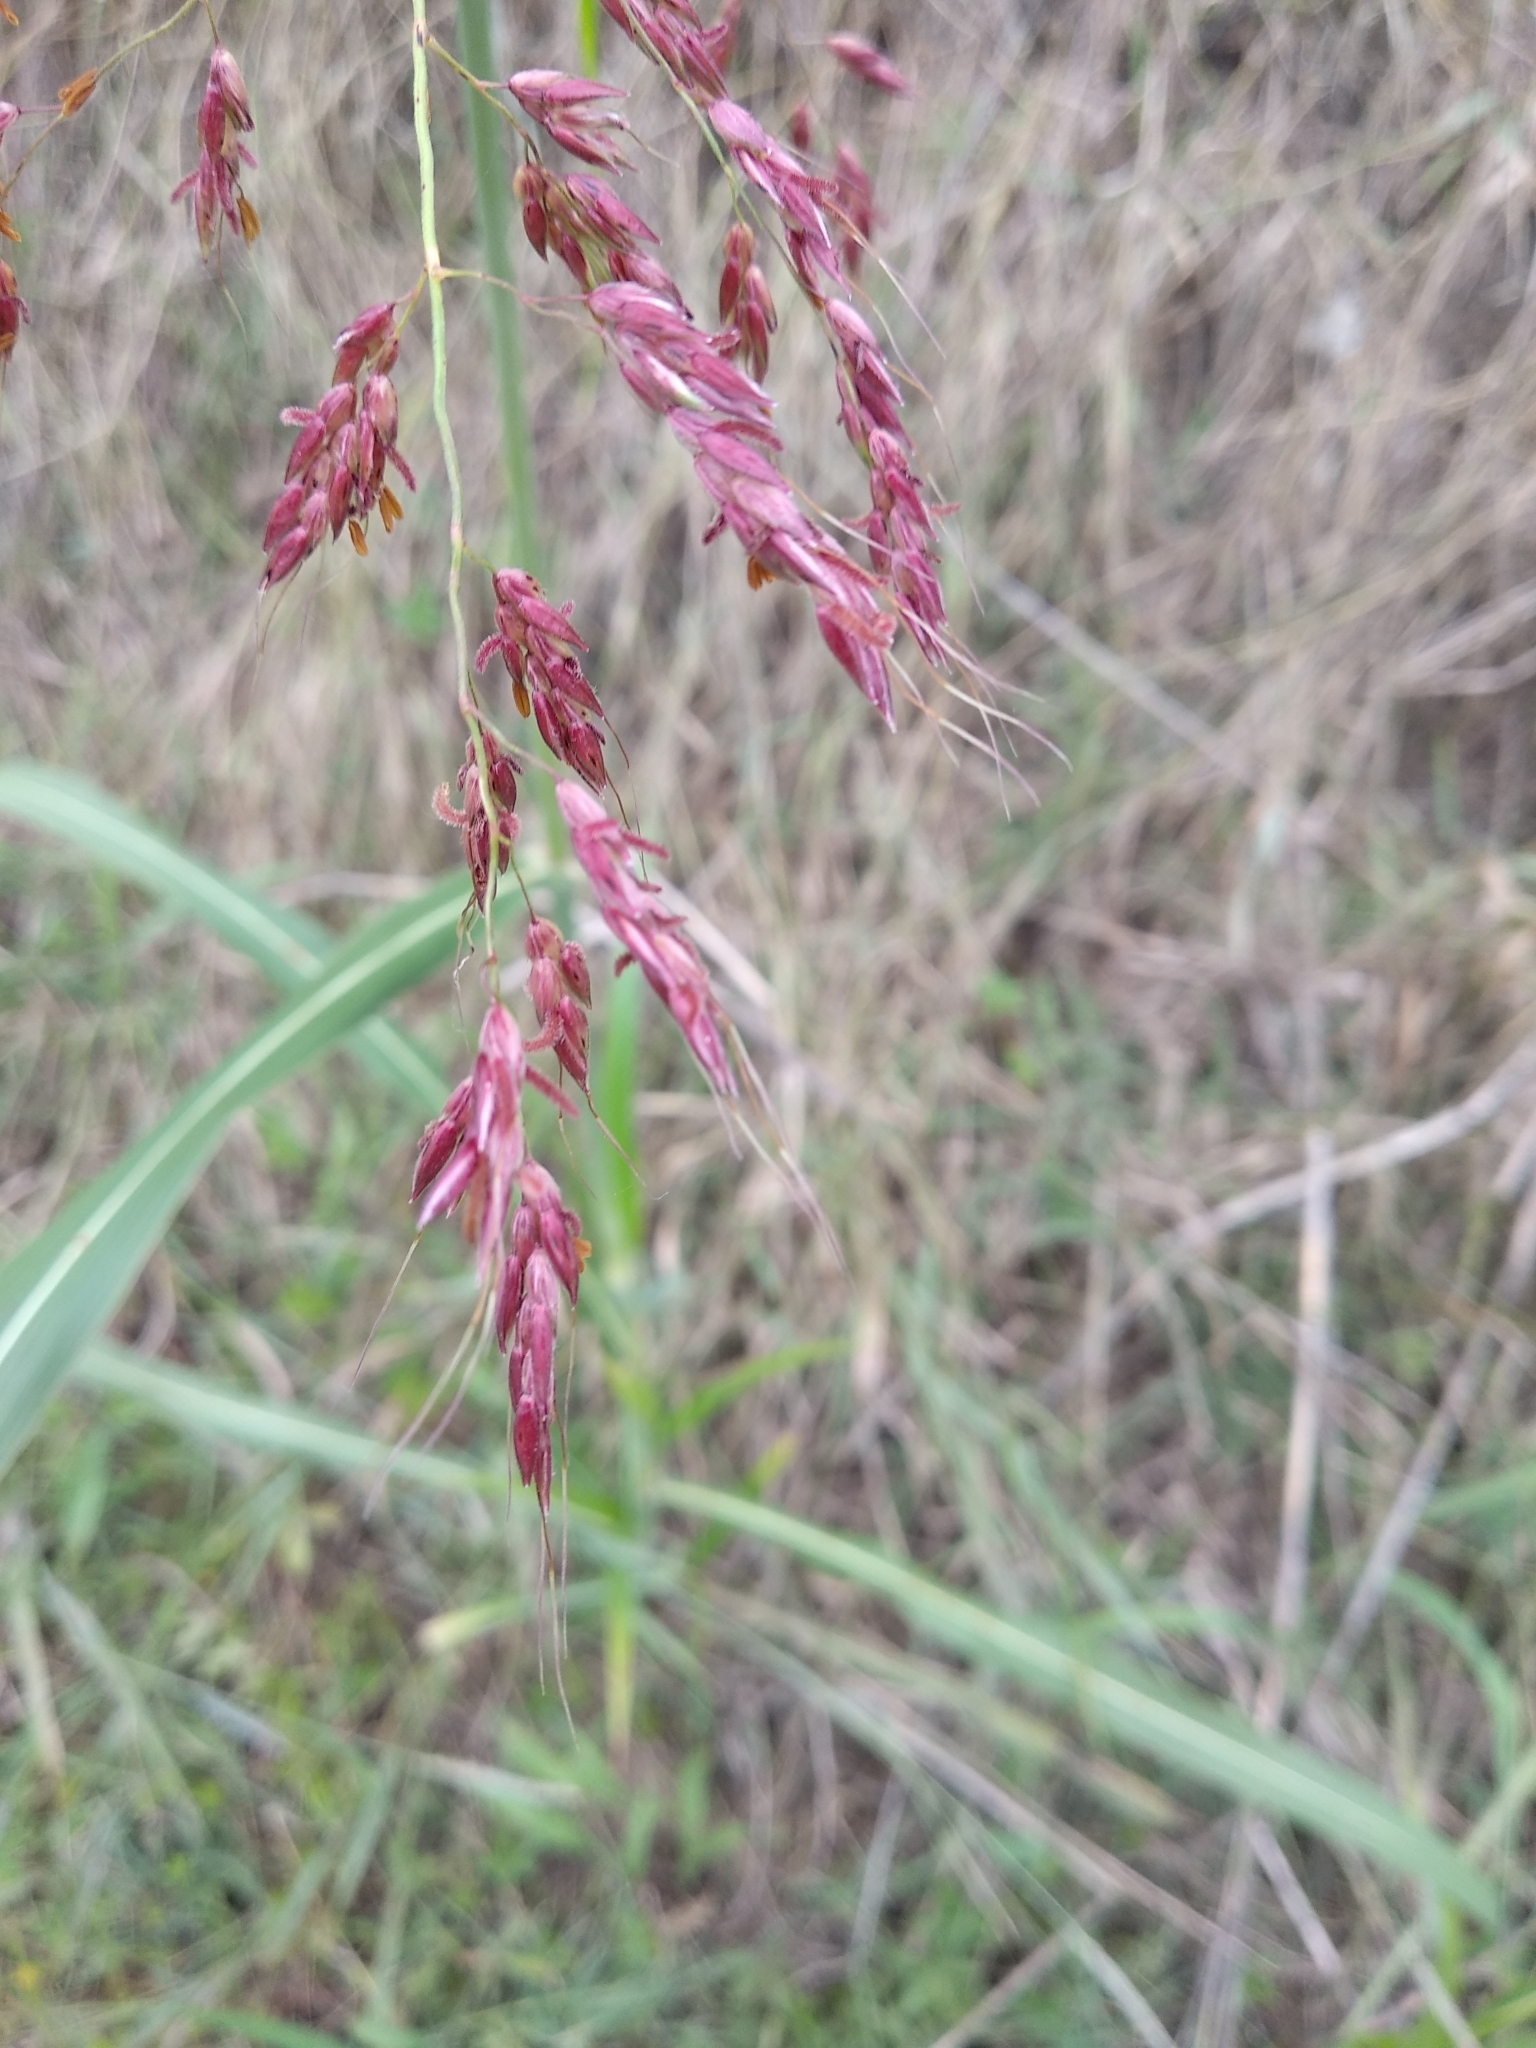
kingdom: Plantae
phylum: Tracheophyta
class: Liliopsida
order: Poales
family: Poaceae
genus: Sorghum
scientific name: Sorghum halepense
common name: Johnson-grass
